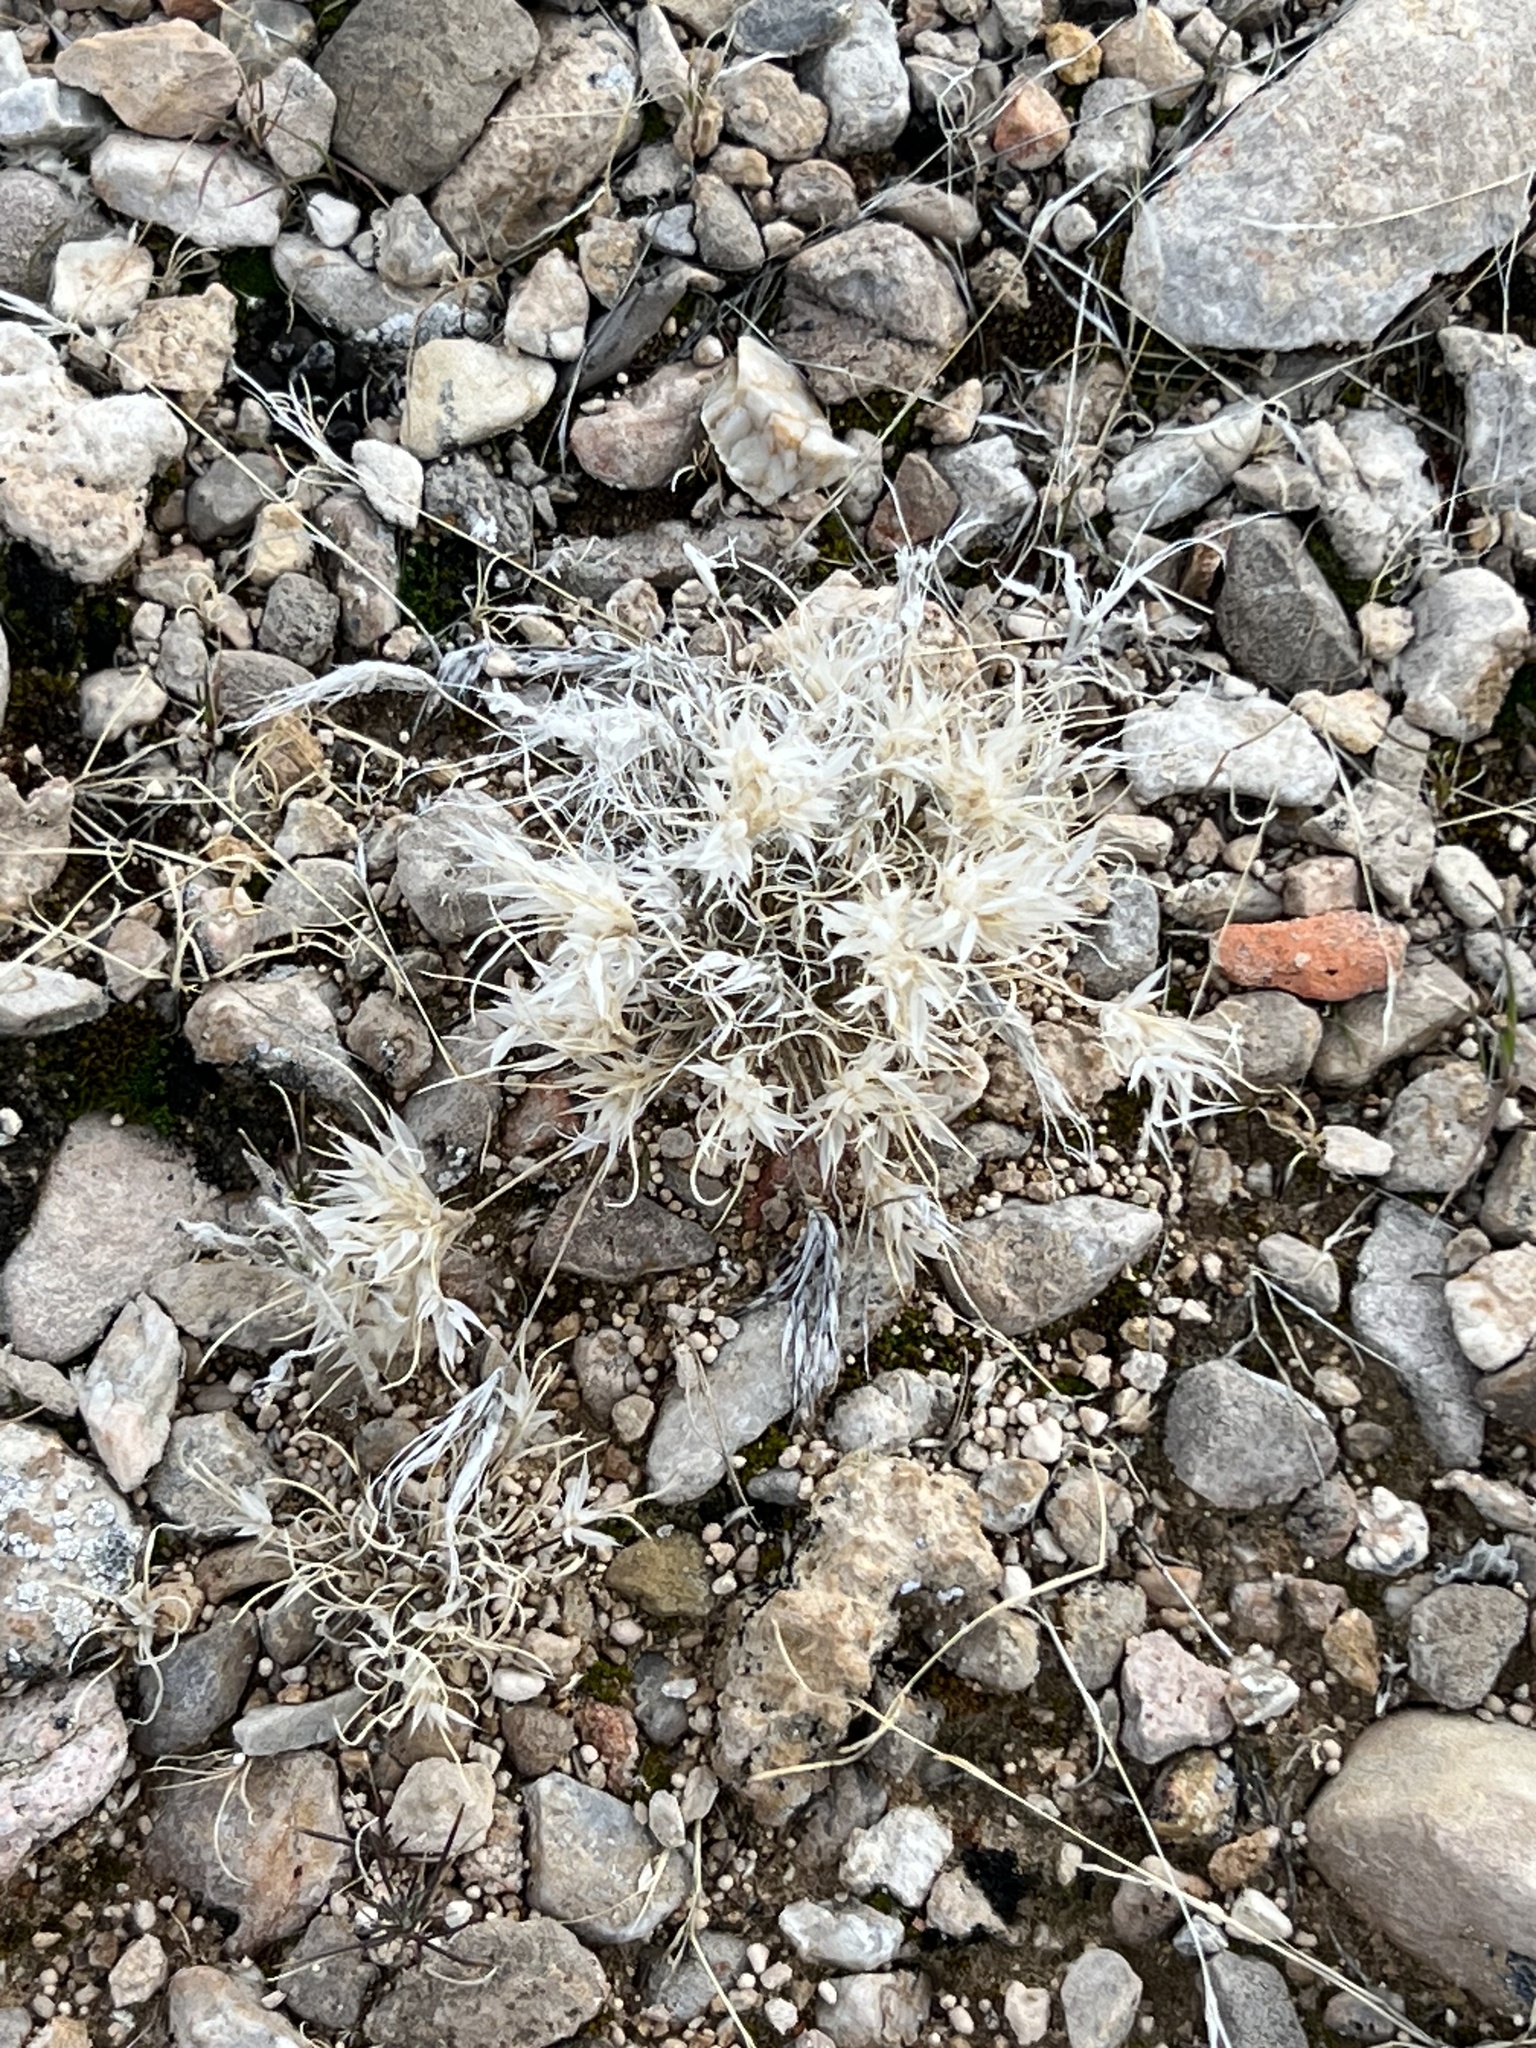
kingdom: Plantae
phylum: Tracheophyta
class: Liliopsida
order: Poales
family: Poaceae
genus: Dasyochloa
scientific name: Dasyochloa pulchella
